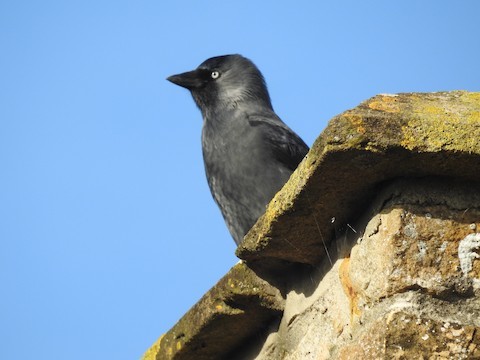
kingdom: Animalia
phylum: Chordata
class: Aves
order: Passeriformes
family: Corvidae
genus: Coloeus
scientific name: Coloeus monedula
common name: Western jackdaw
